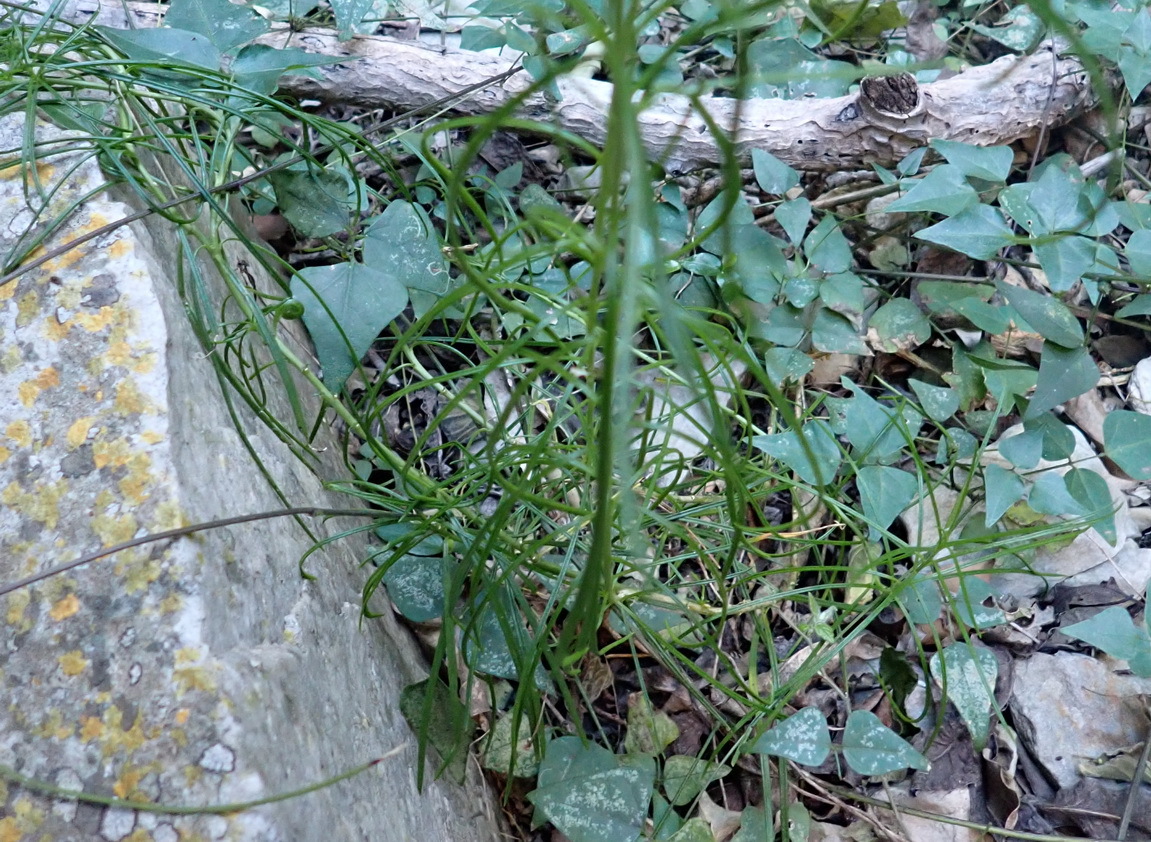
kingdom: Plantae
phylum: Tracheophyta
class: Magnoliopsida
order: Brassicales
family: Brassicaceae
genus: Heliophila
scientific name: Heliophila suavissima
